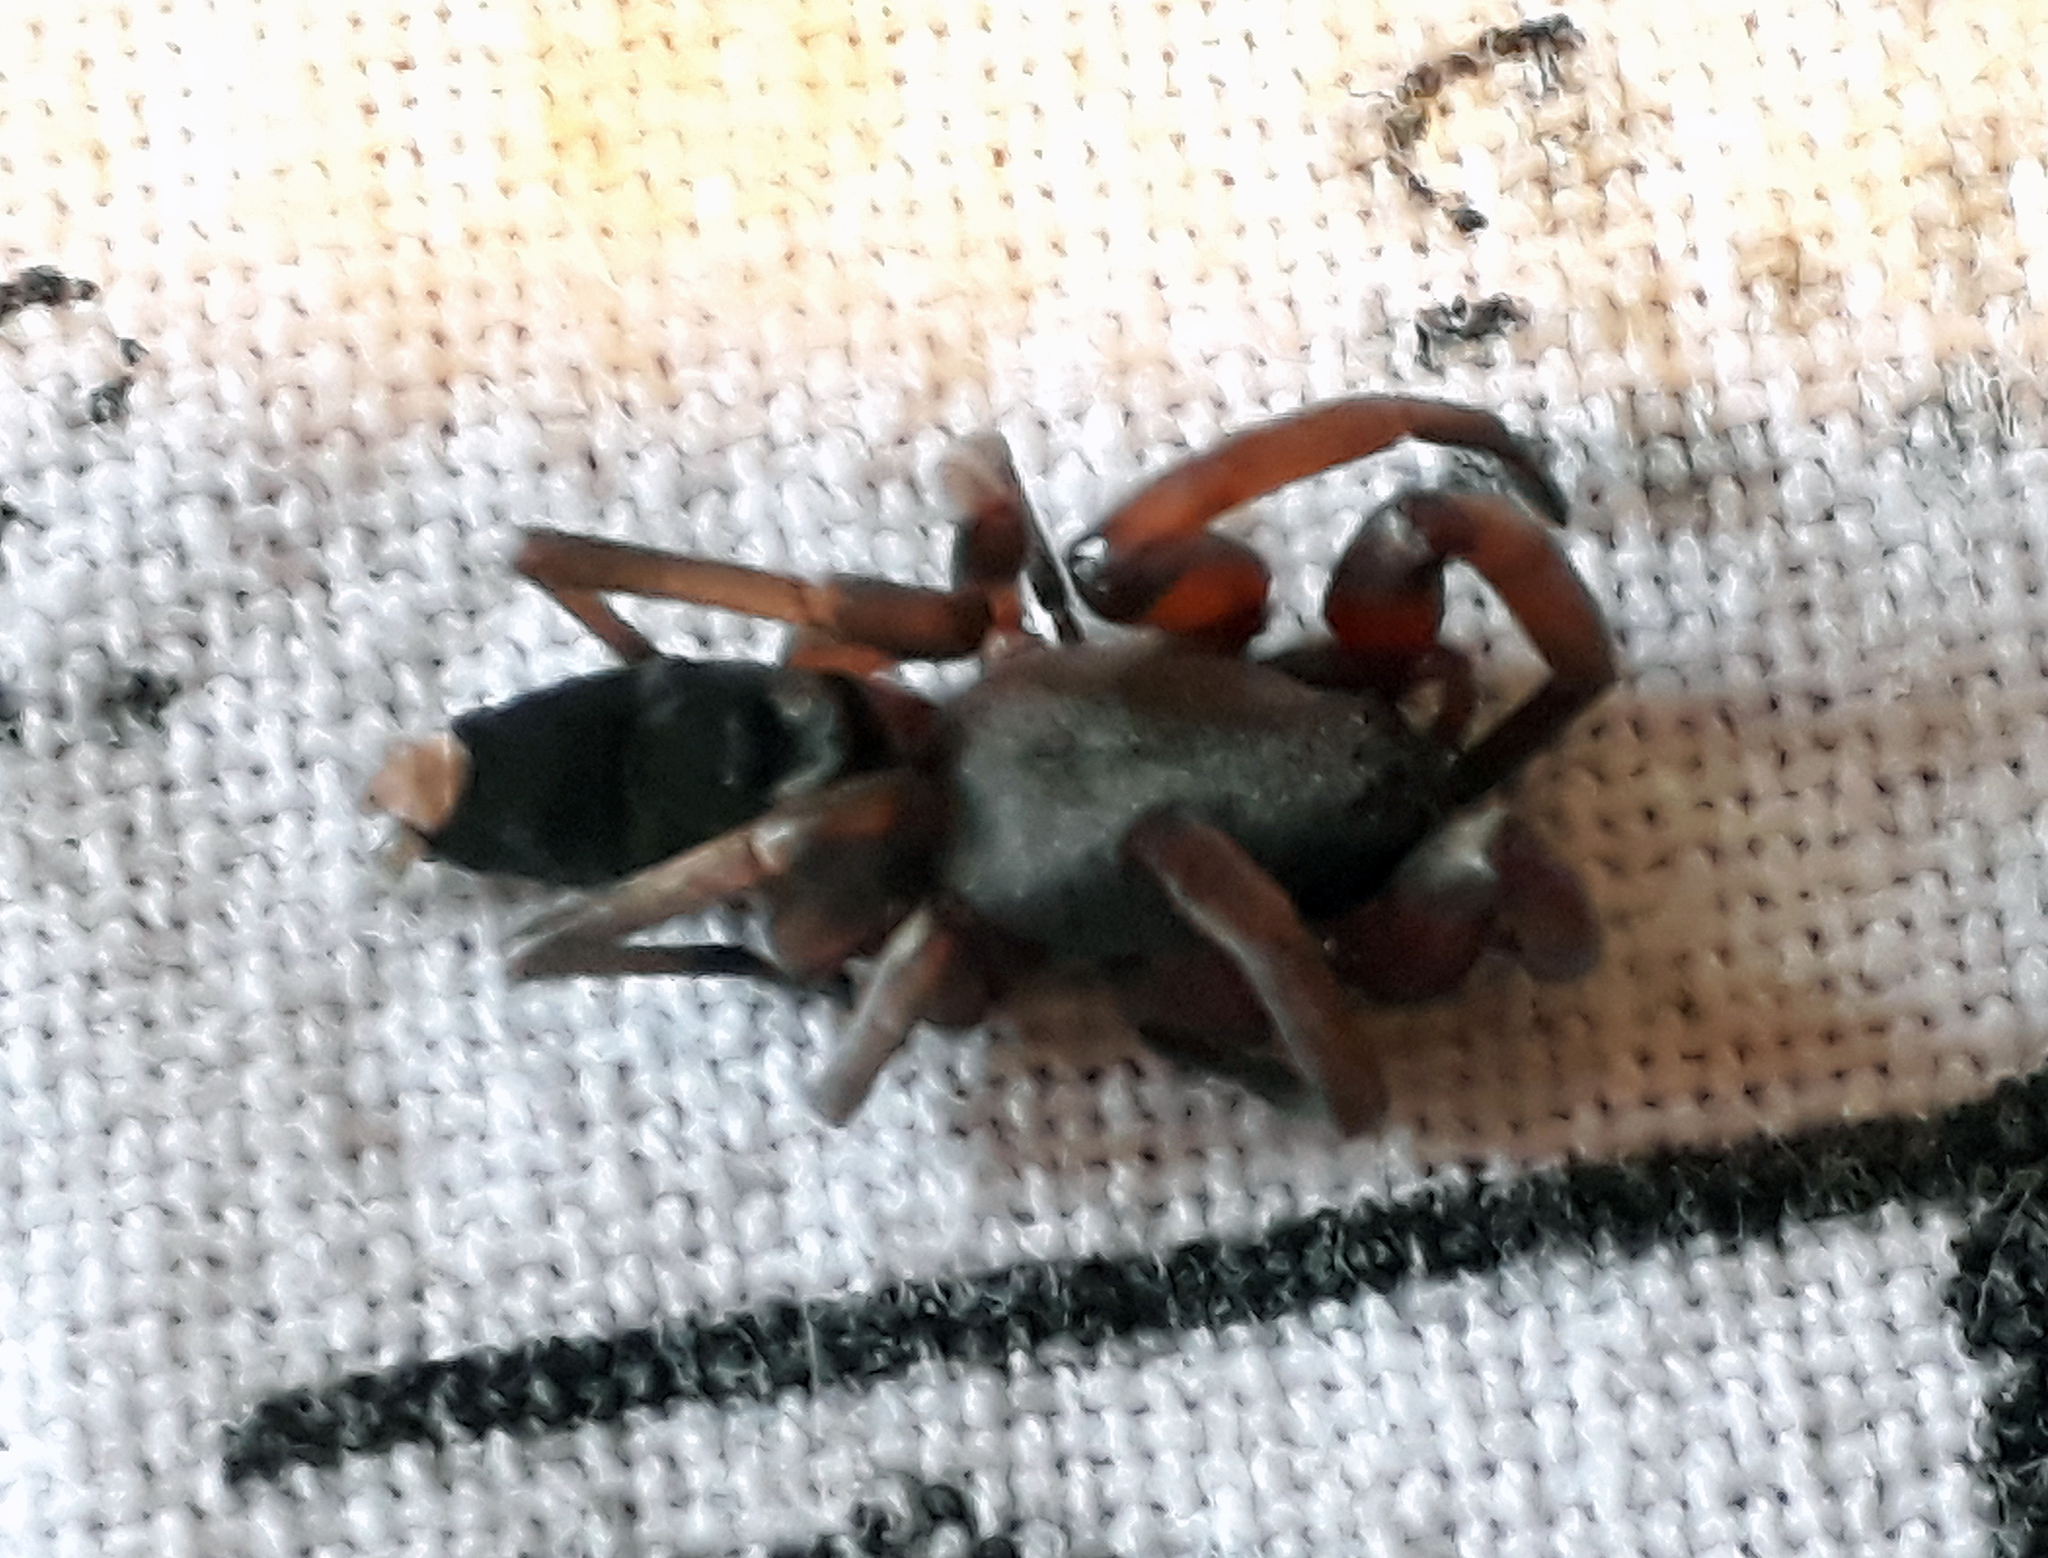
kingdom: Animalia
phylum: Arthropoda
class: Arachnida
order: Araneae
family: Lamponidae
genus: Lampona
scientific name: Lampona murina
